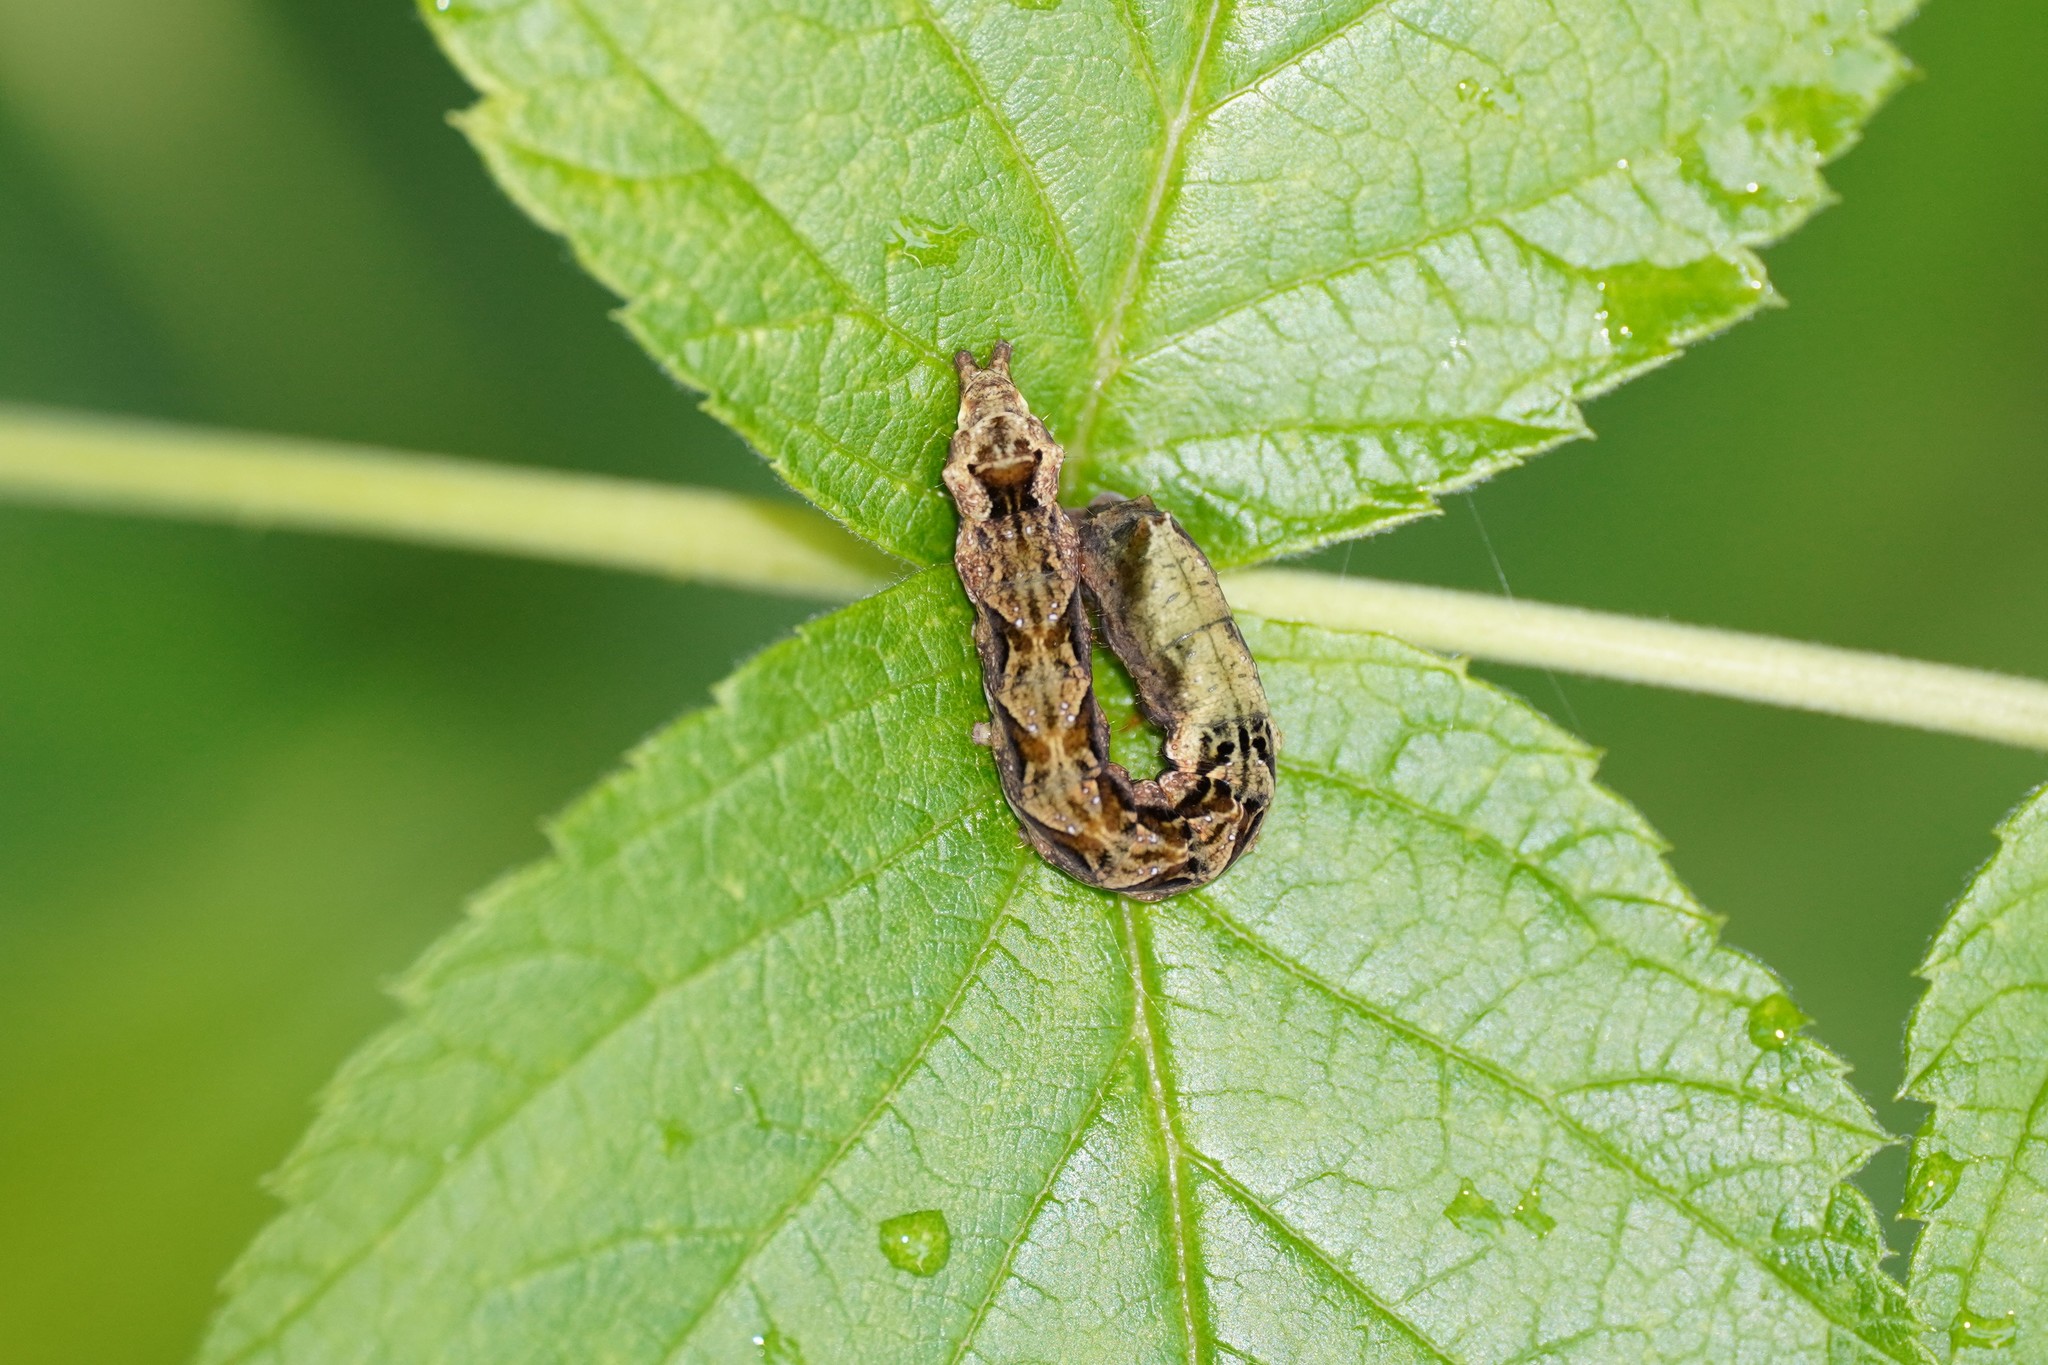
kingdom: Animalia
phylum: Arthropoda
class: Insecta
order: Lepidoptera
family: Drepanidae
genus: Thyatira
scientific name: Thyatira batis
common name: Peach blossom
